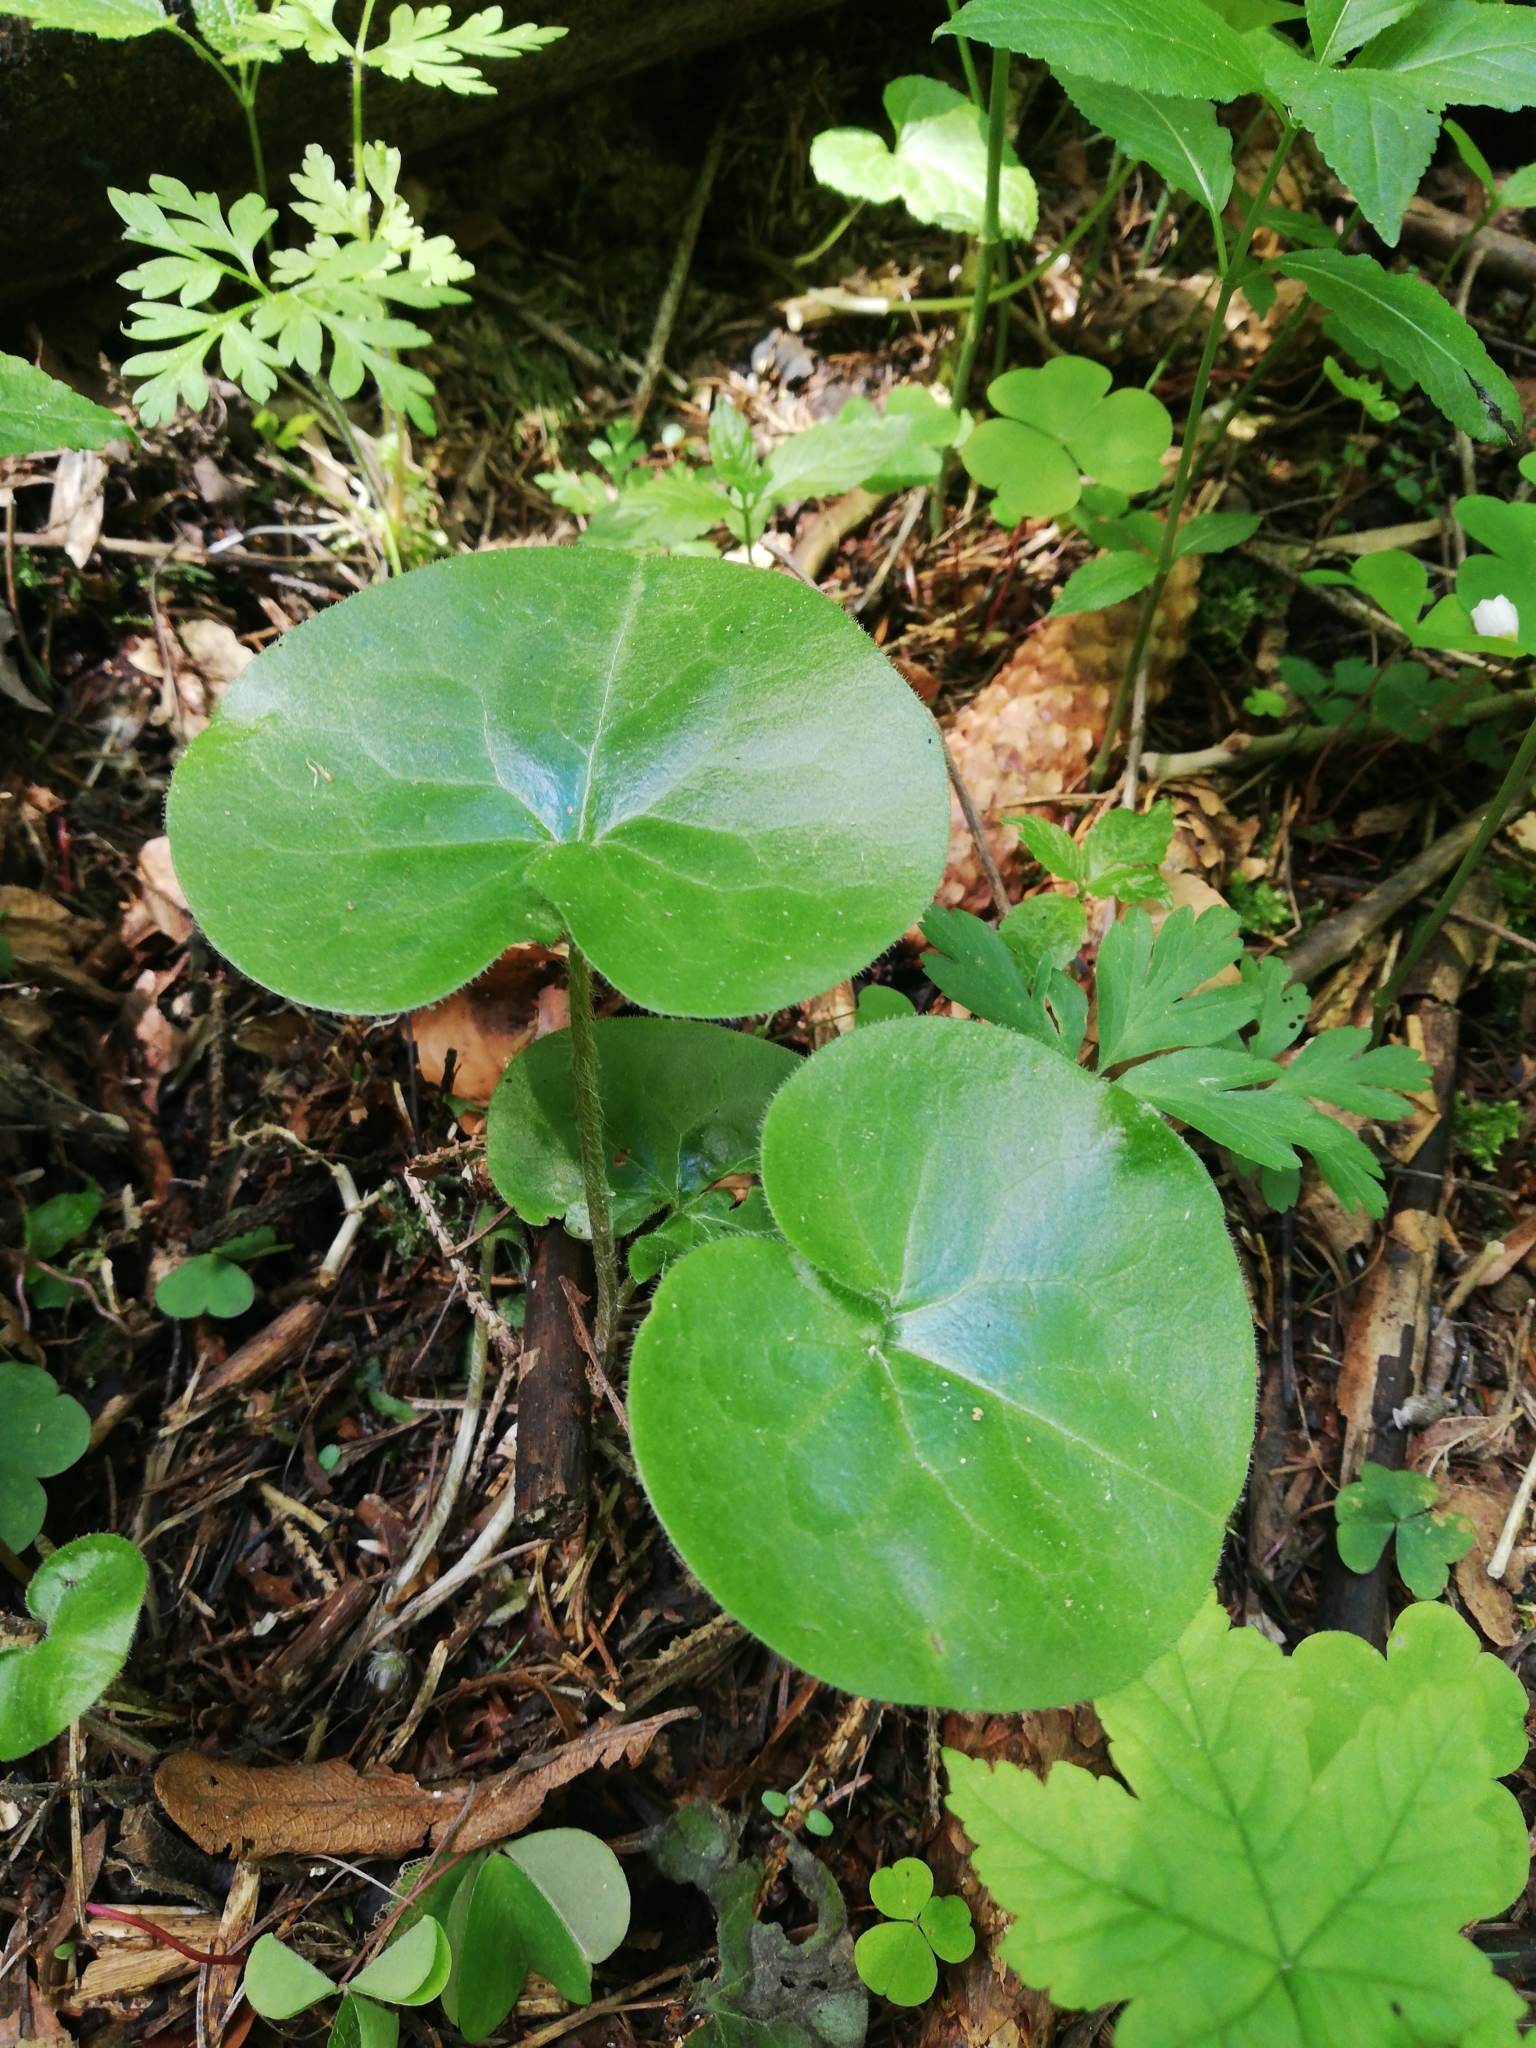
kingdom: Plantae
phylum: Tracheophyta
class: Magnoliopsida
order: Piperales
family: Aristolochiaceae
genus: Asarum
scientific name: Asarum europaeum
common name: Asarabacca
